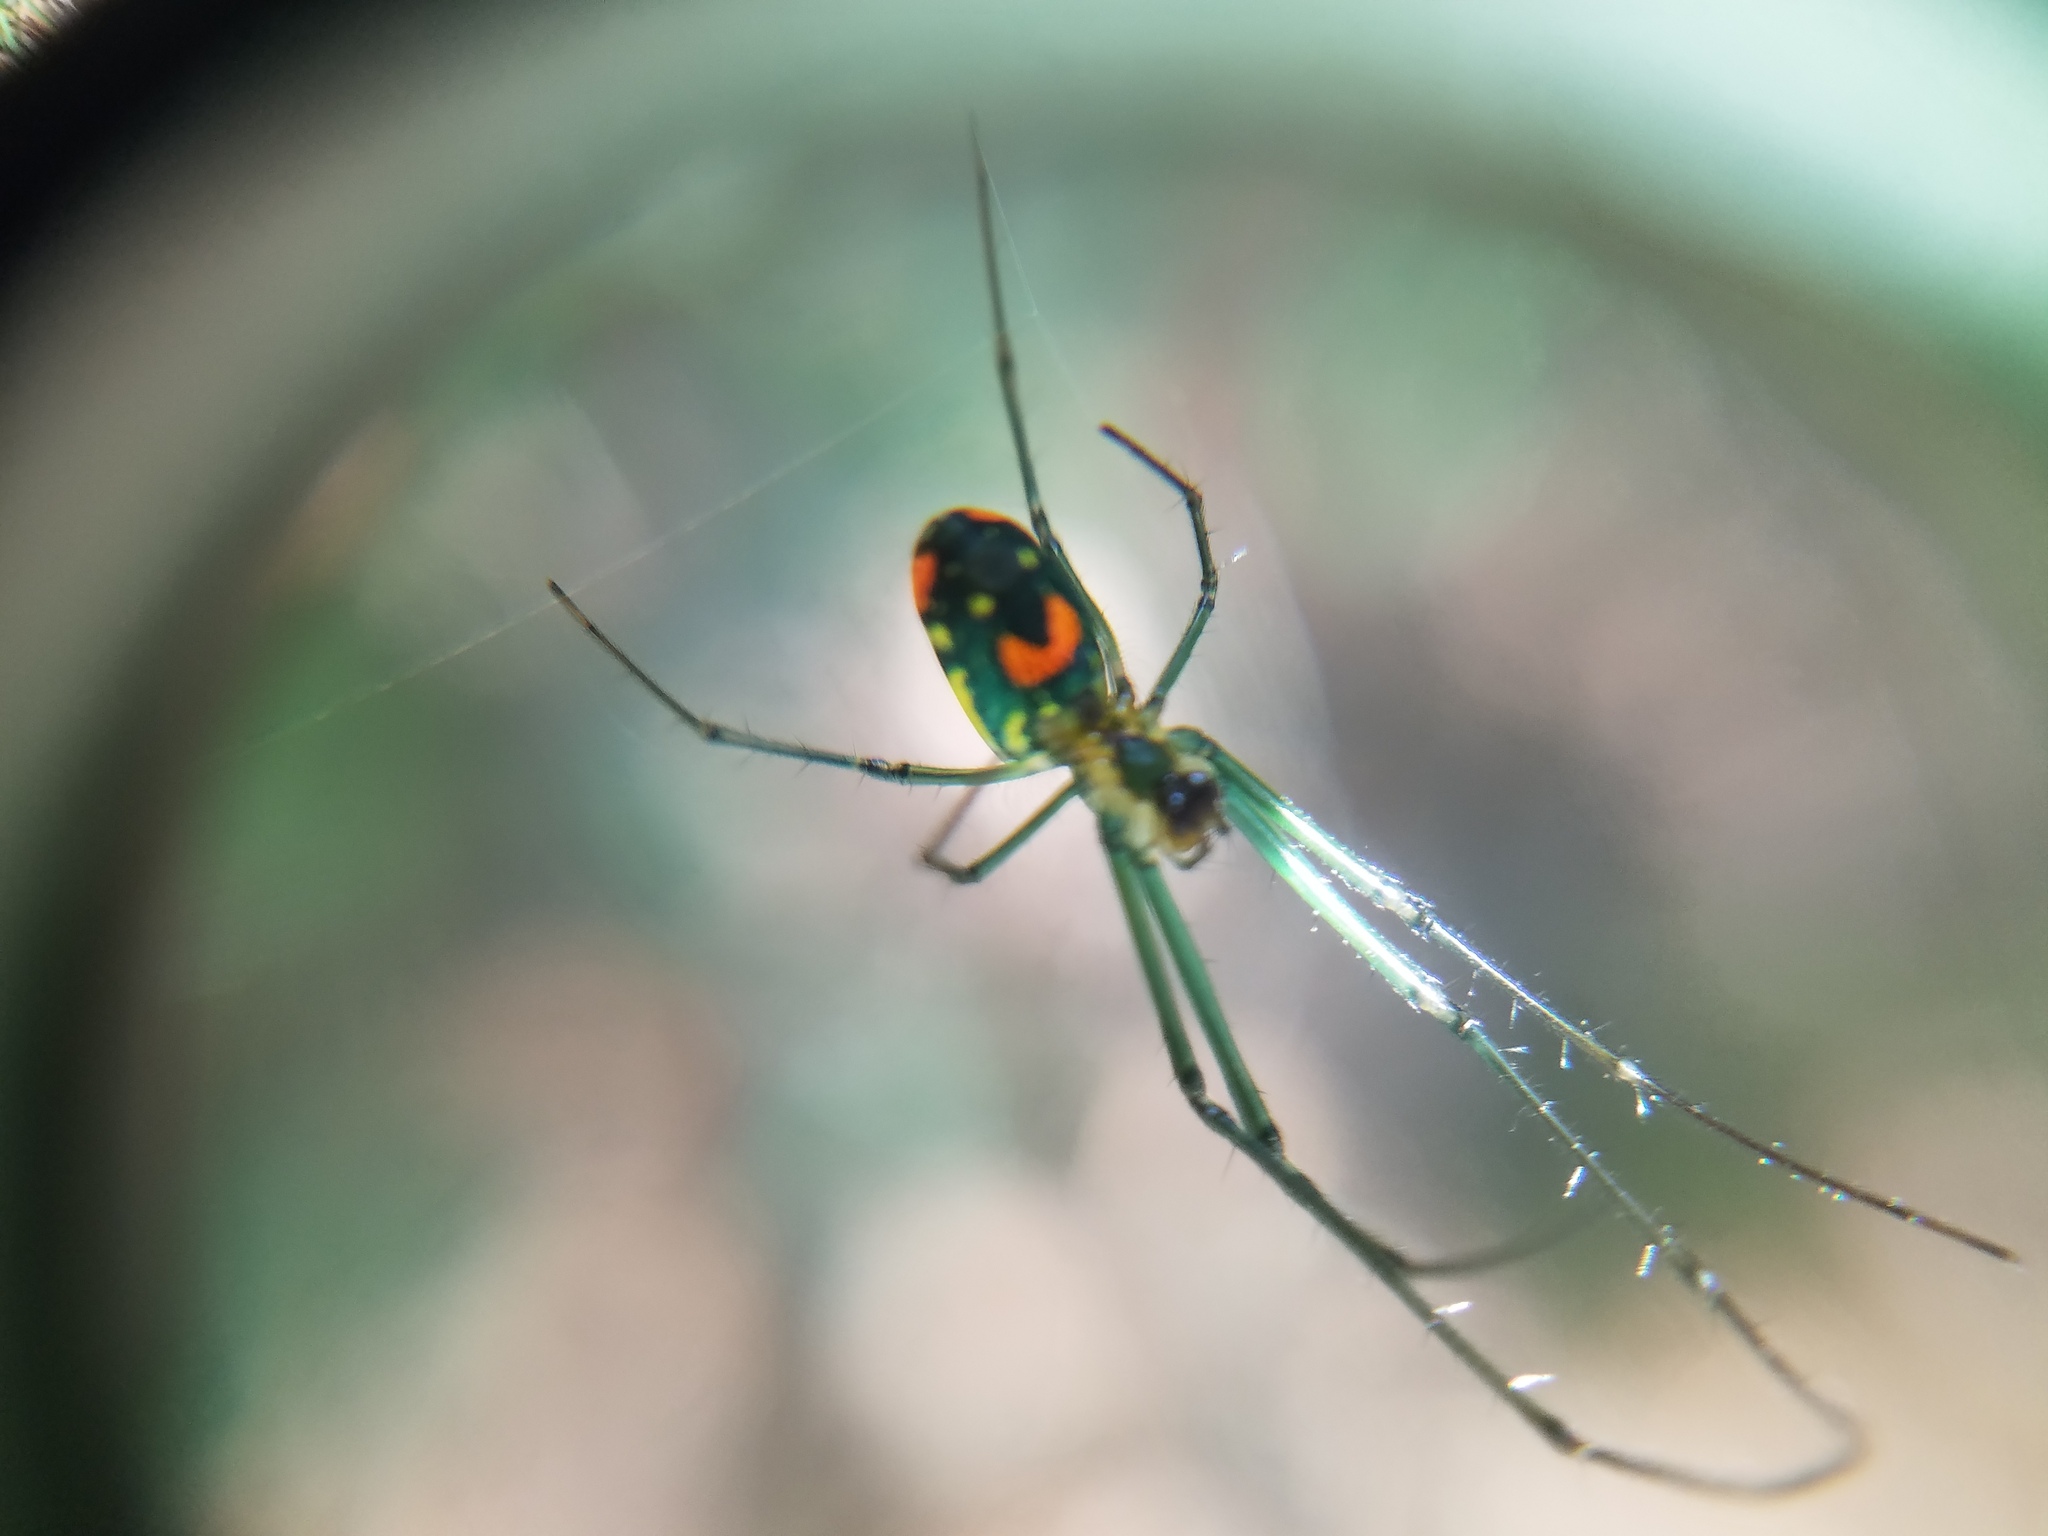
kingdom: Animalia
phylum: Arthropoda
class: Arachnida
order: Araneae
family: Tetragnathidae
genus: Leucauge
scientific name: Leucauge argyrobapta
